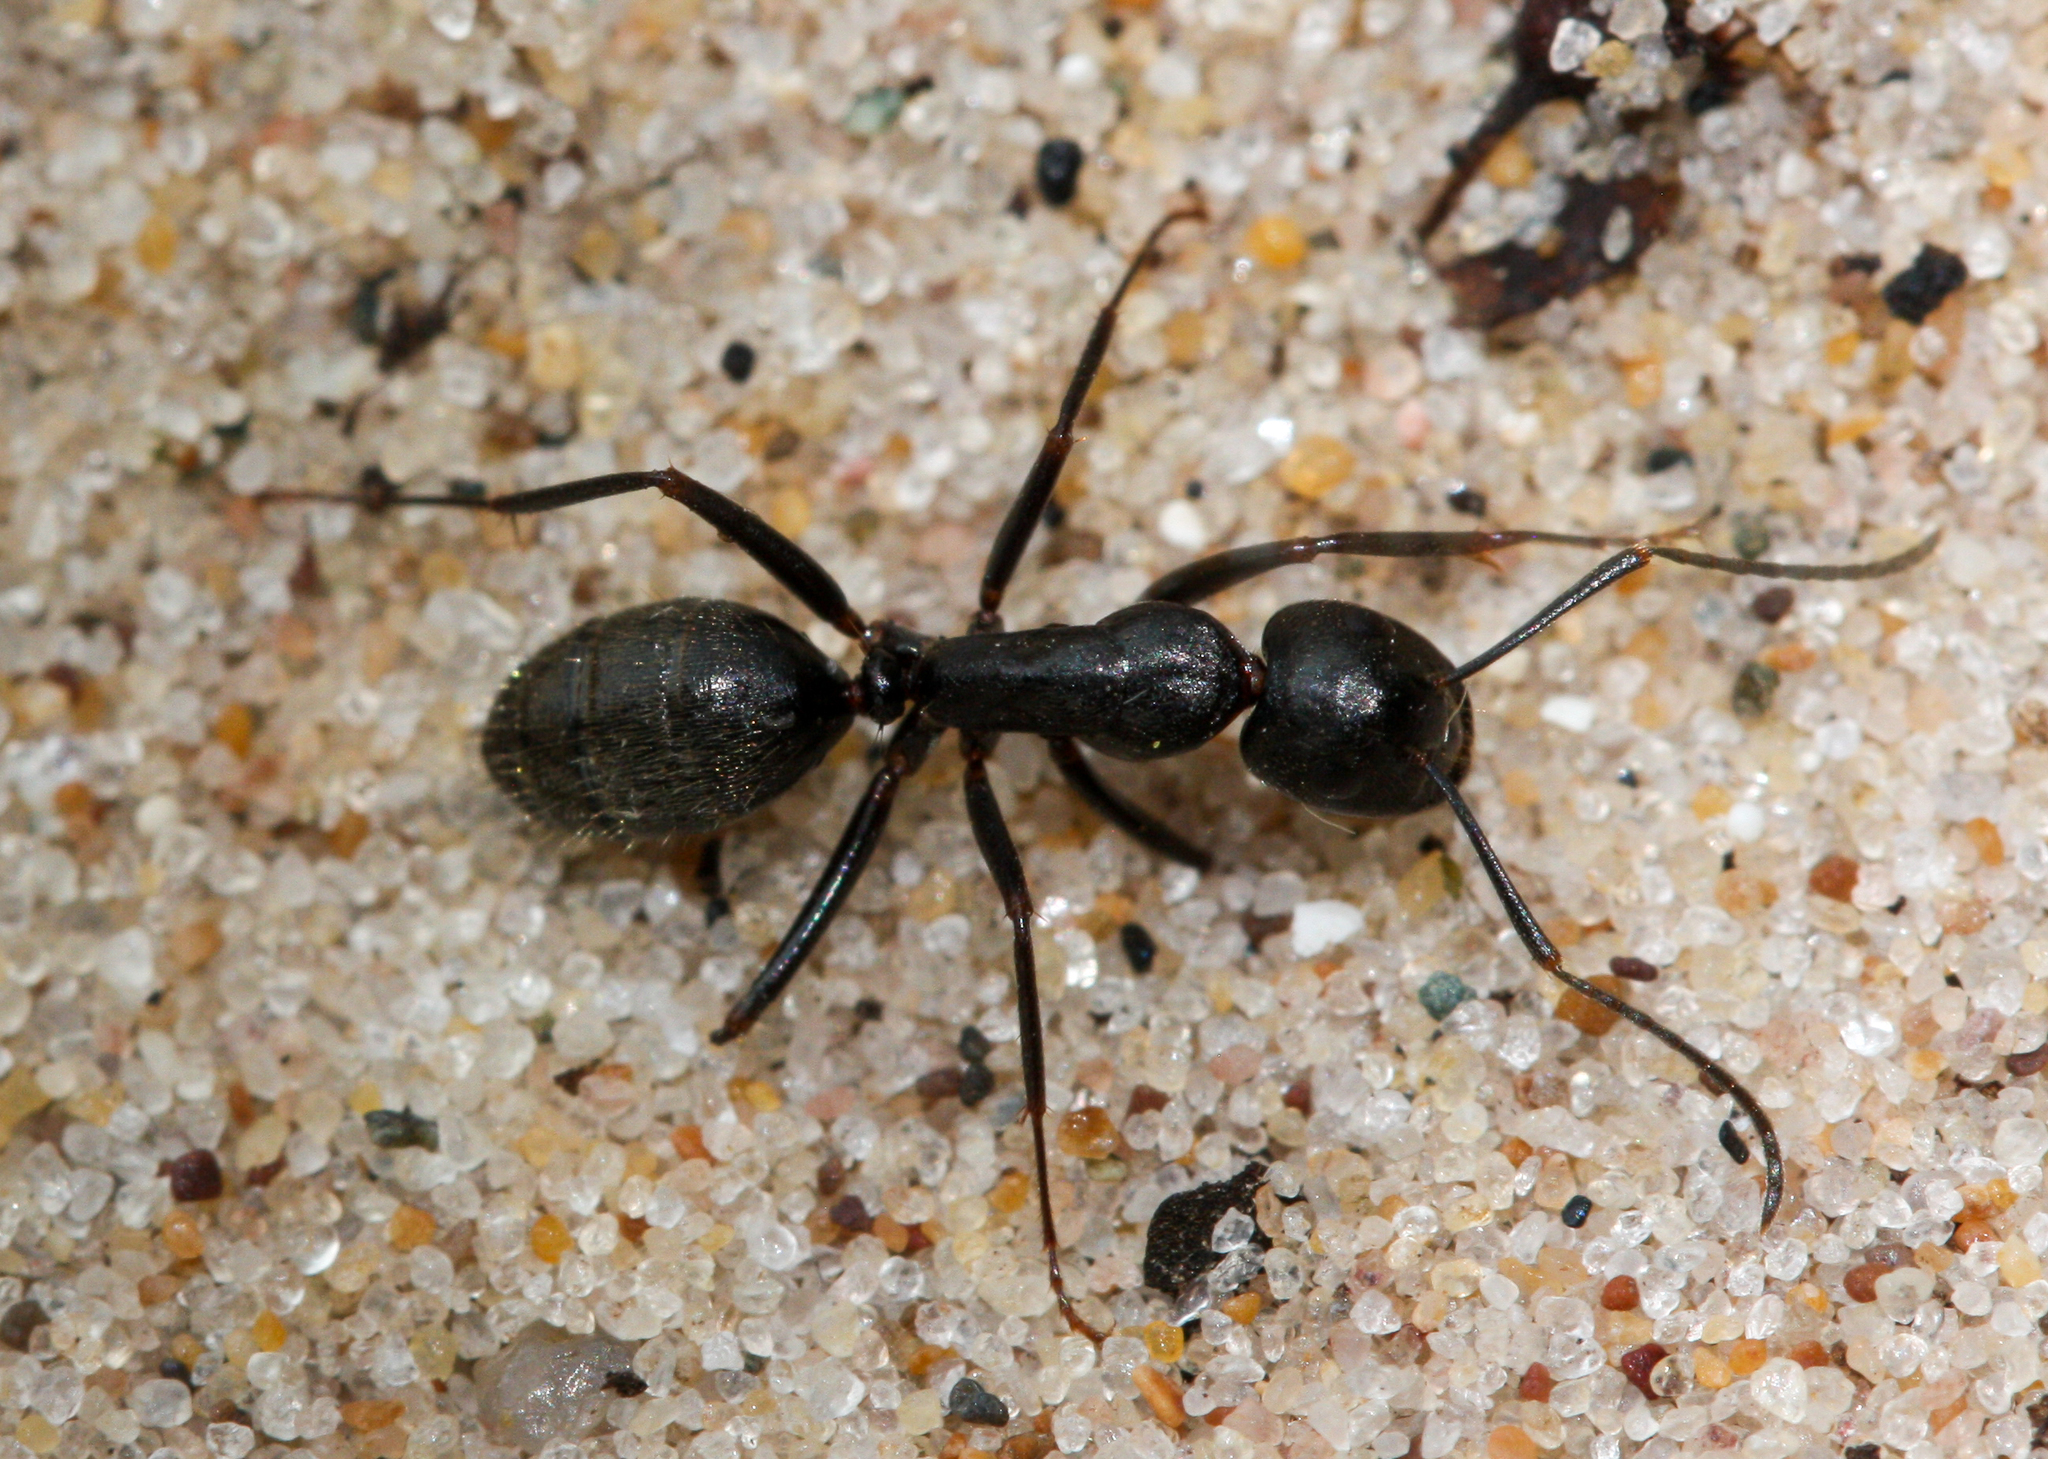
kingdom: Animalia
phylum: Arthropoda
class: Insecta
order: Hymenoptera
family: Formicidae
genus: Camponotus
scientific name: Camponotus pennsylvanicus
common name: Black carpenter ant
